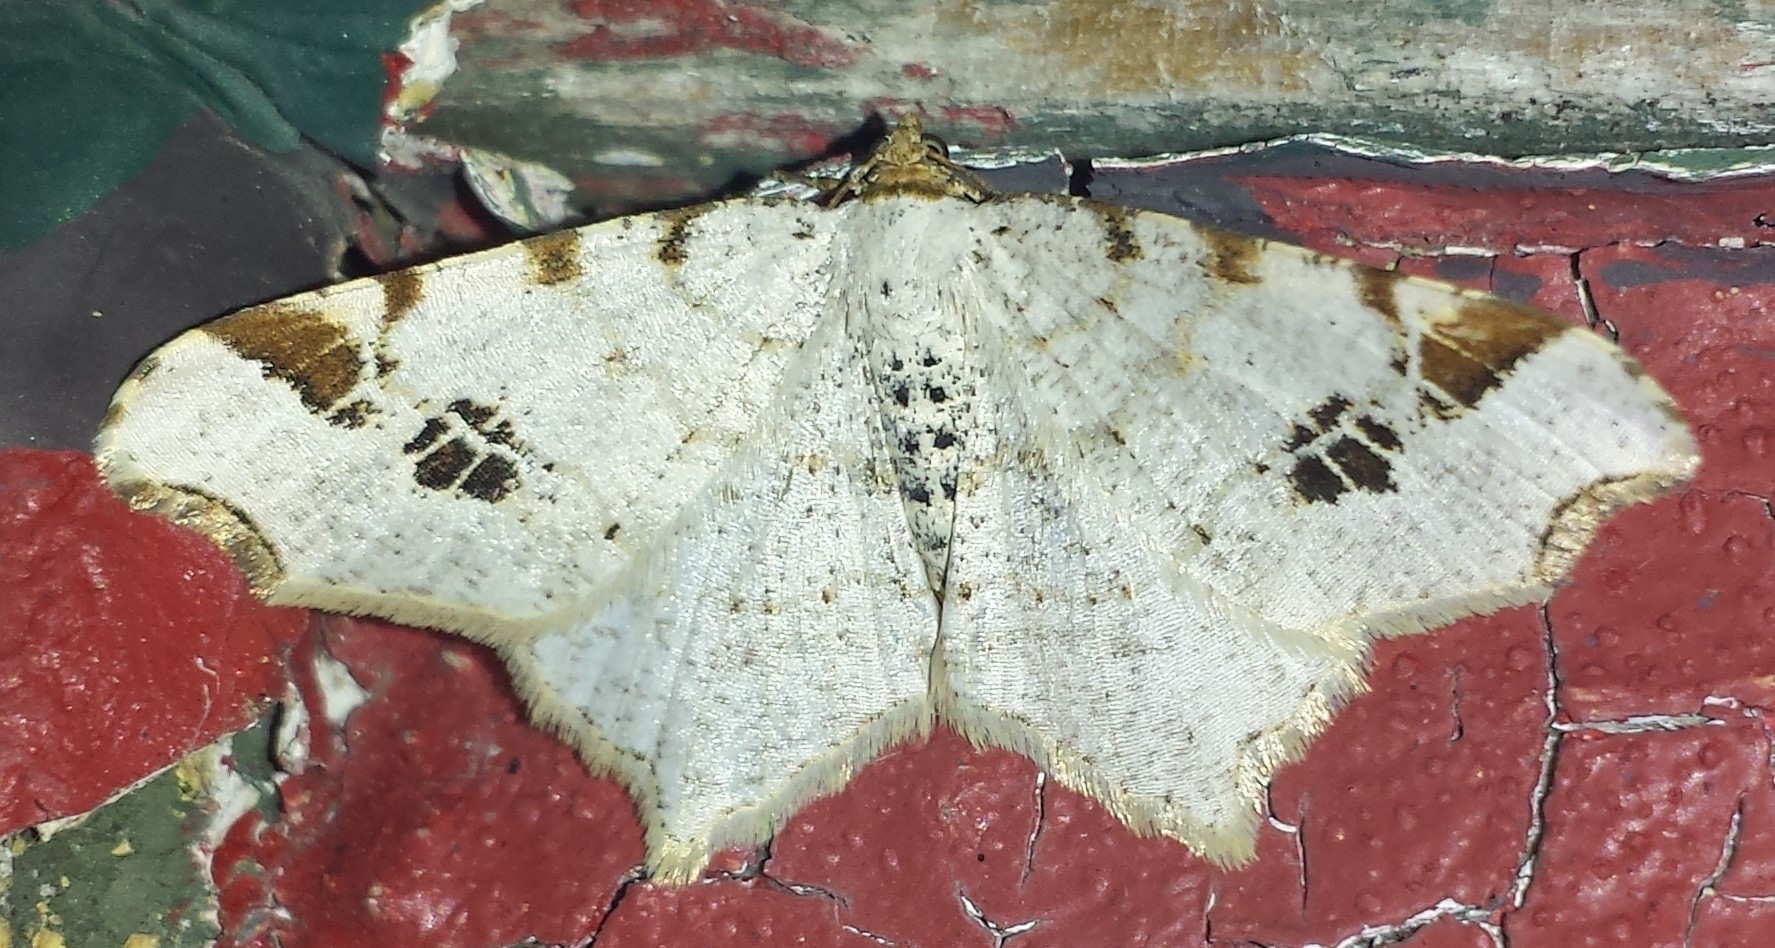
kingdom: Animalia
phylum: Arthropoda
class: Insecta
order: Lepidoptera
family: Geometridae
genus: Macaria
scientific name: Macaria ulsterata
